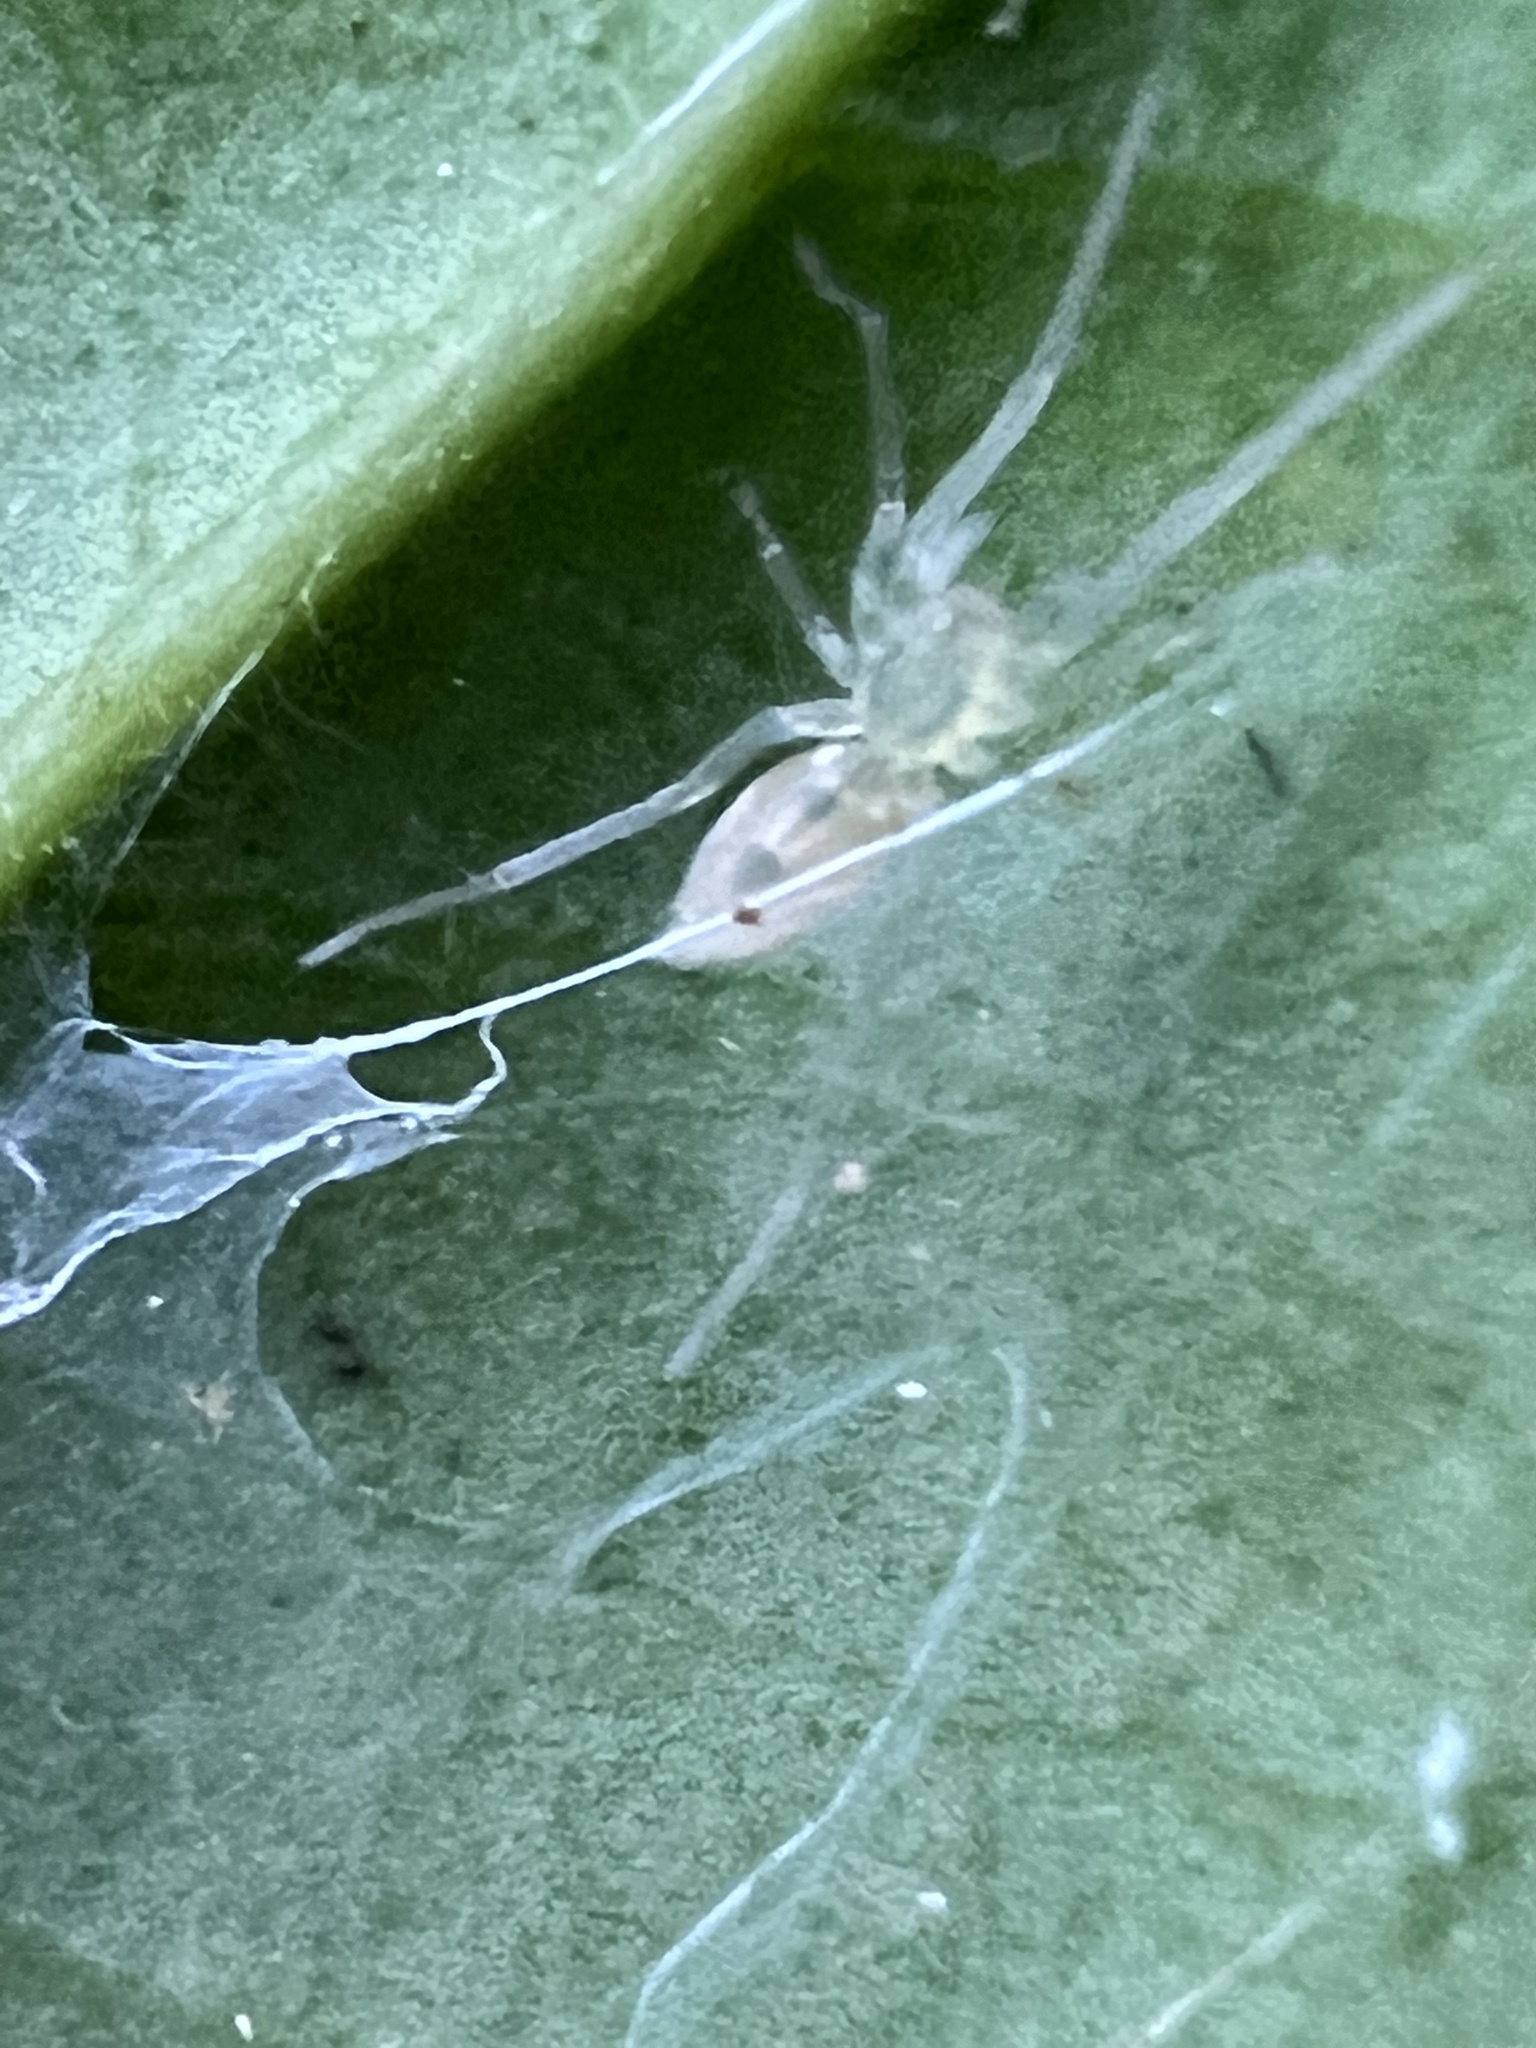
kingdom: Animalia
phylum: Arthropoda
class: Arachnida
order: Araneae
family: Anyphaenidae
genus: Wulfila
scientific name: Wulfila albens
